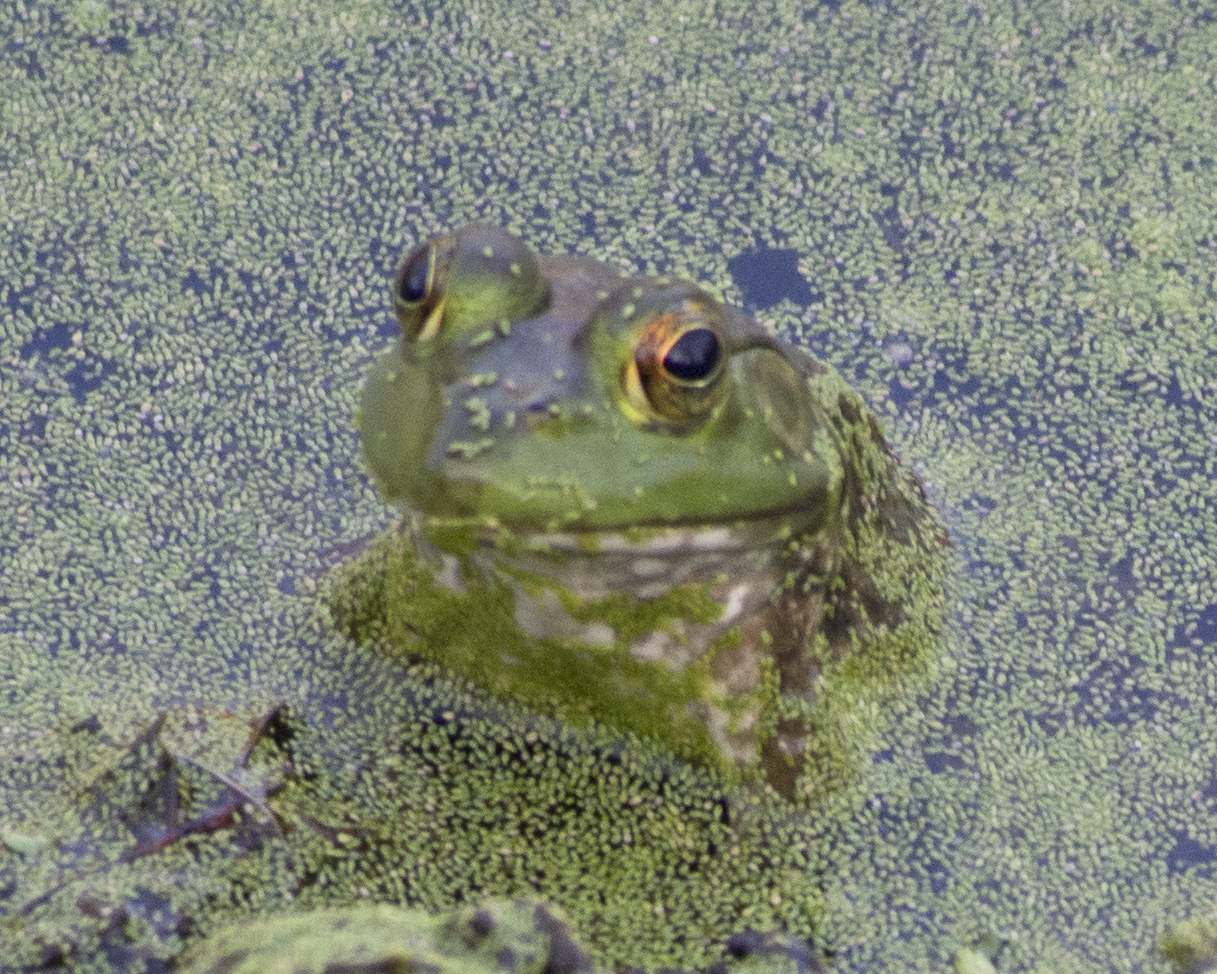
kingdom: Animalia
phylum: Chordata
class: Amphibia
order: Anura
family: Ranidae
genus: Lithobates
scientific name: Lithobates catesbeianus
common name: American bullfrog
